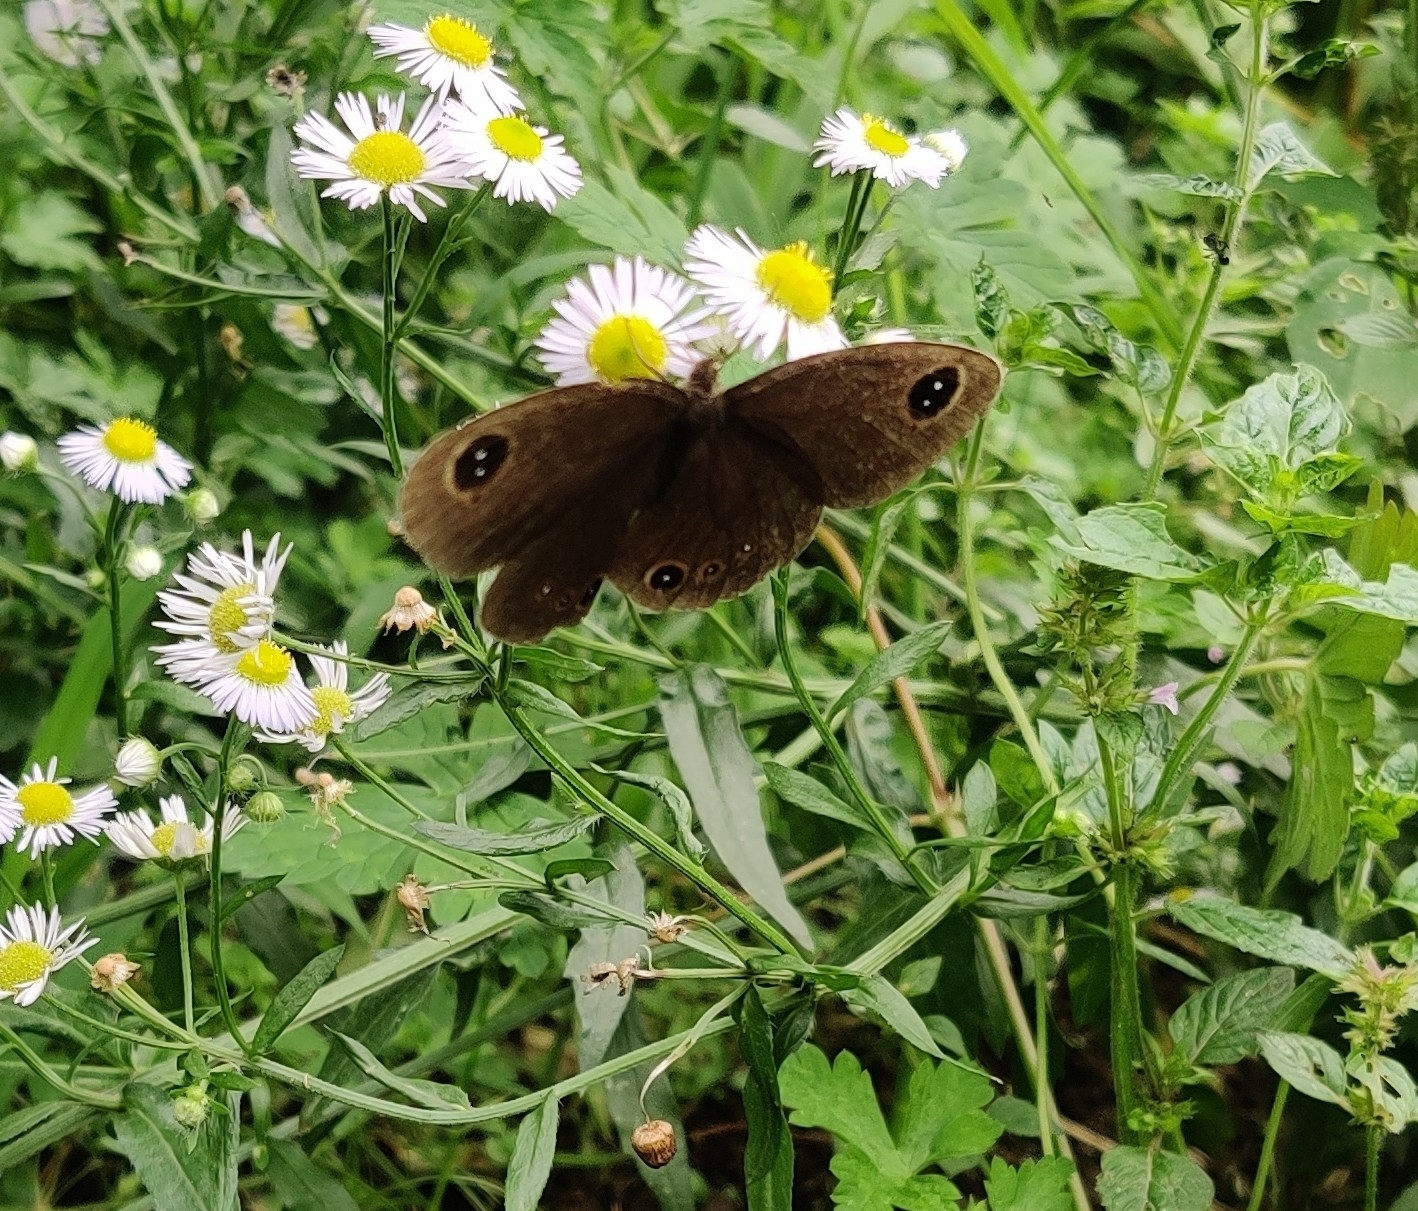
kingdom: Animalia
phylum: Arthropoda
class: Insecta
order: Lepidoptera
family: Nymphalidae
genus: Ypthima
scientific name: Ypthima huebneri
